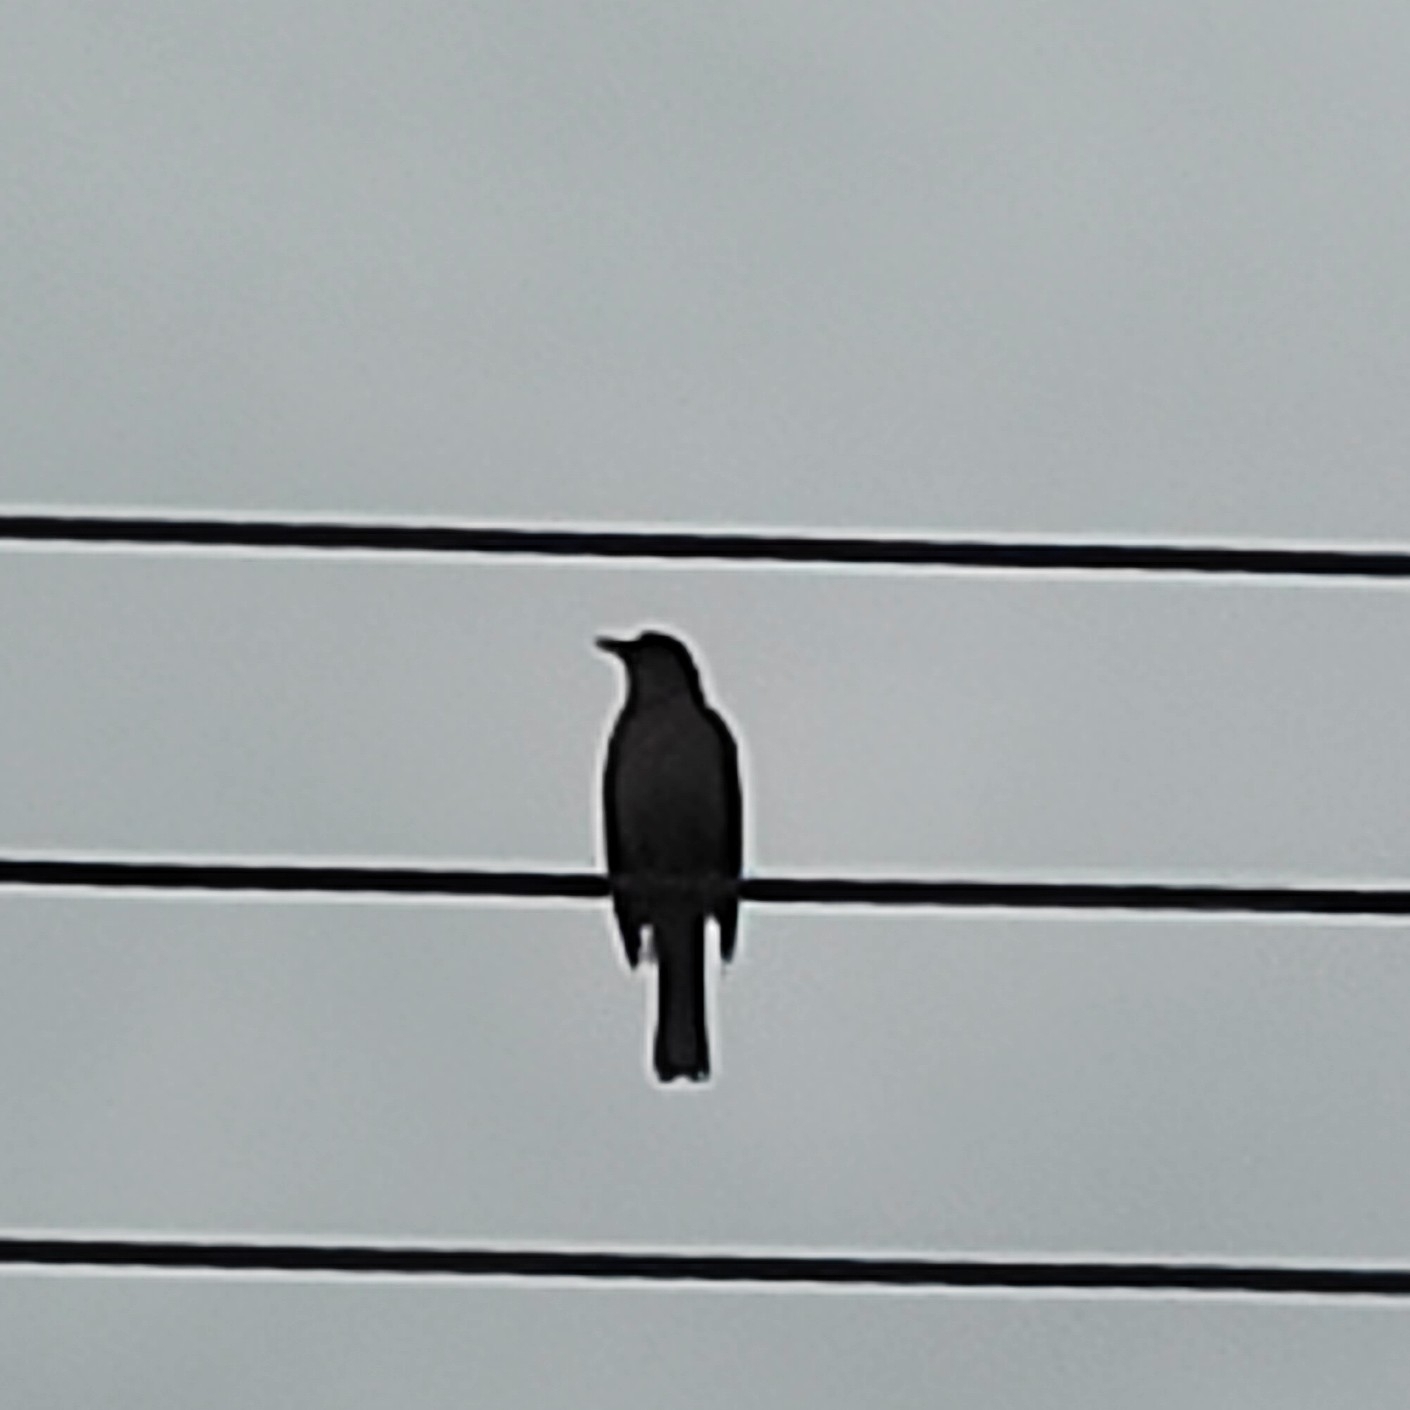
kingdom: Animalia
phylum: Chordata
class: Aves
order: Passeriformes
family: Turdidae
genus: Turdus
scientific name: Turdus grayi
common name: Clay-colored thrush
